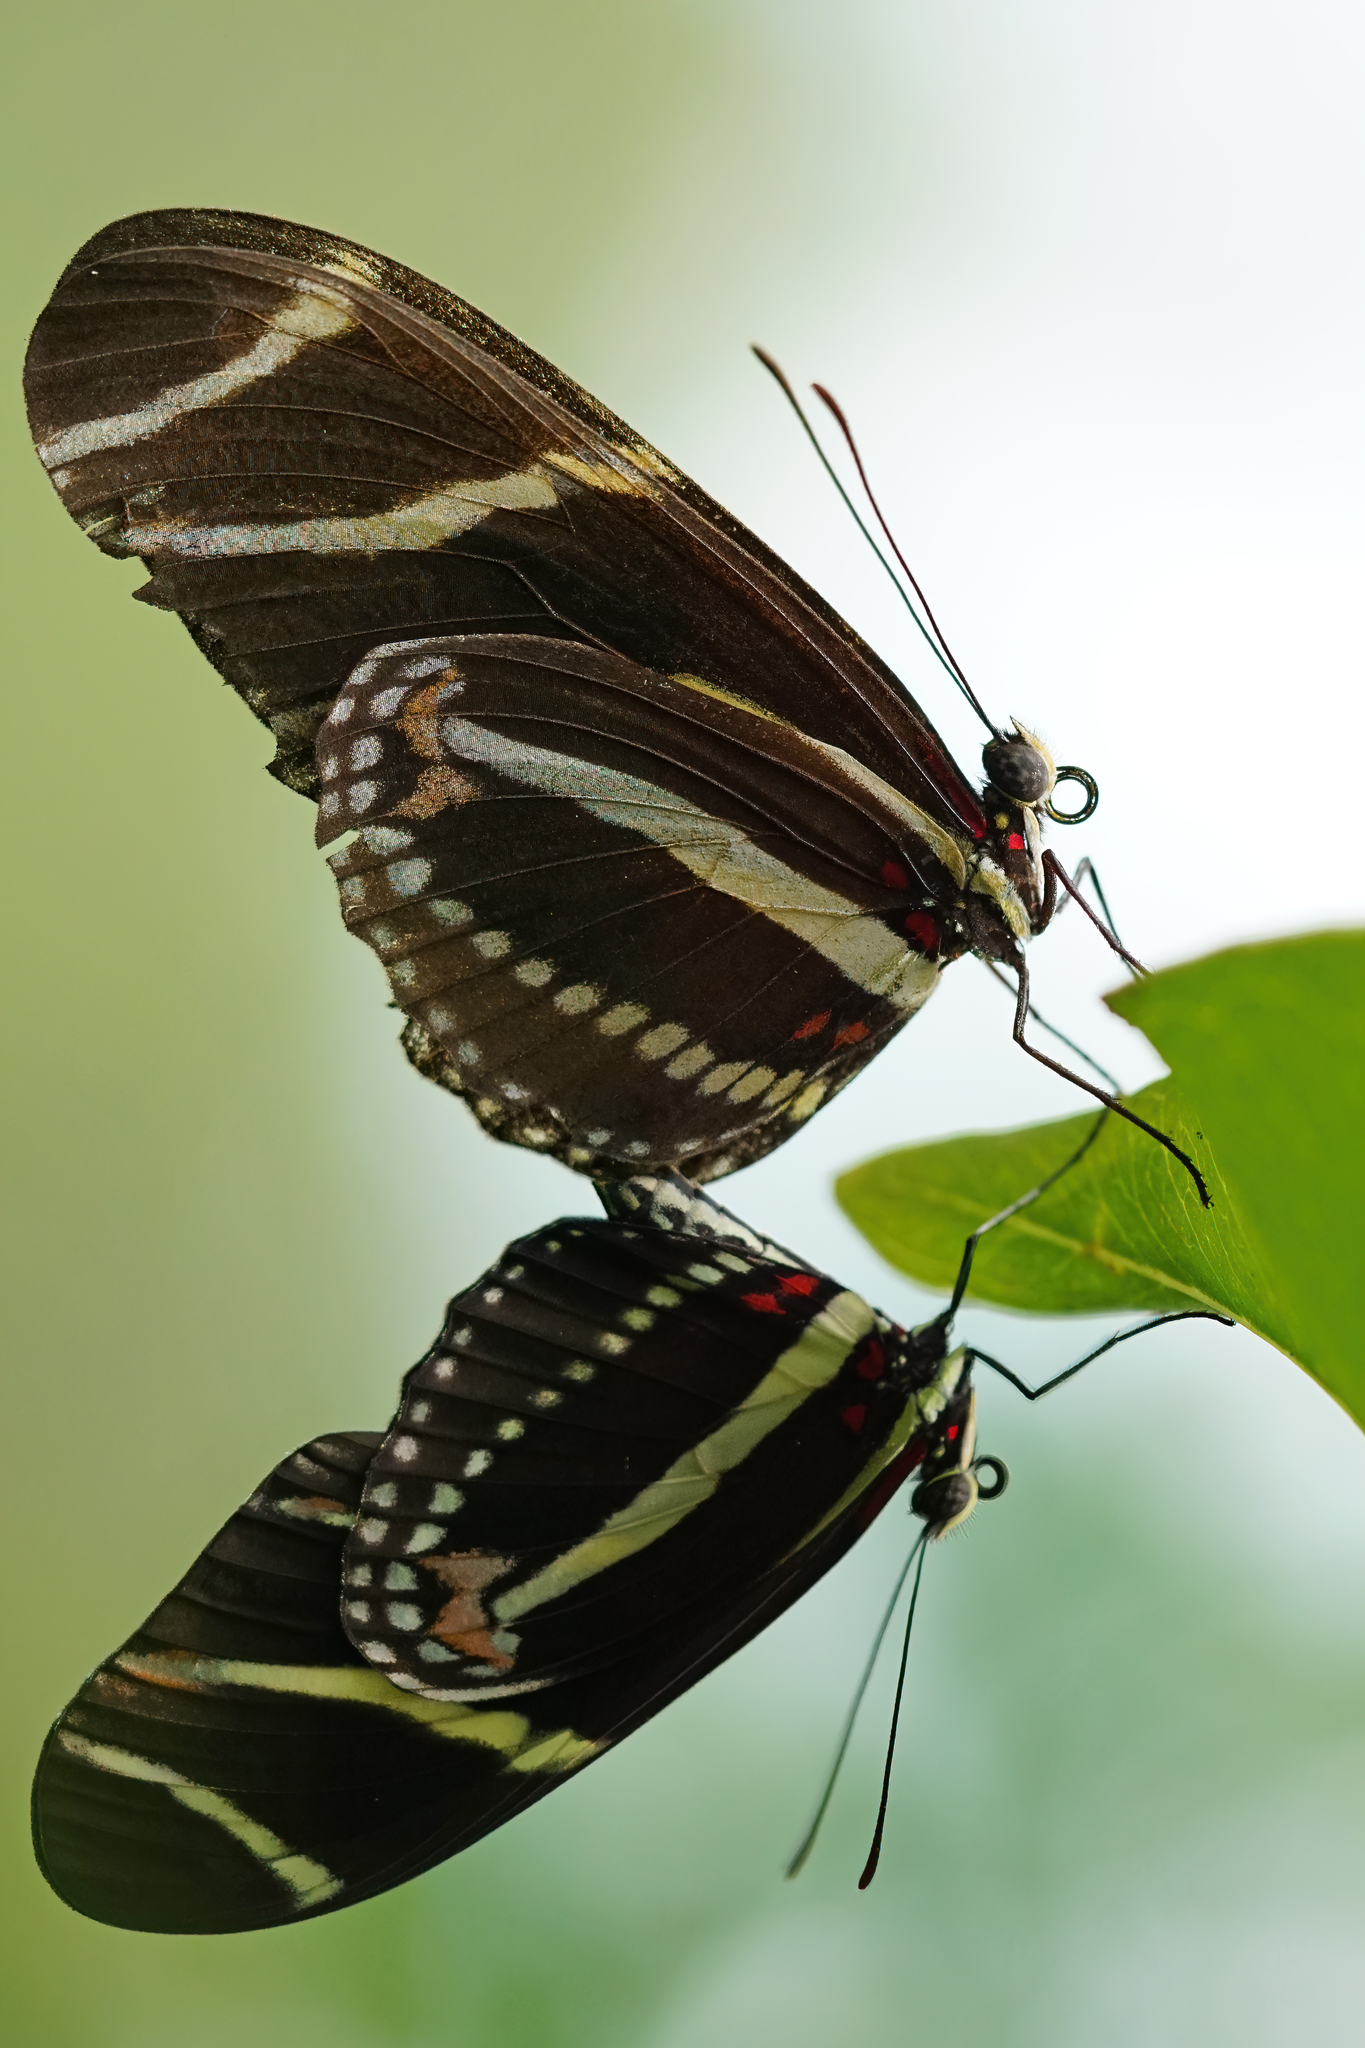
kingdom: Animalia
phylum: Arthropoda
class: Insecta
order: Lepidoptera
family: Nymphalidae
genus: Heliconius
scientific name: Heliconius charithonia
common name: Zebra long wing
